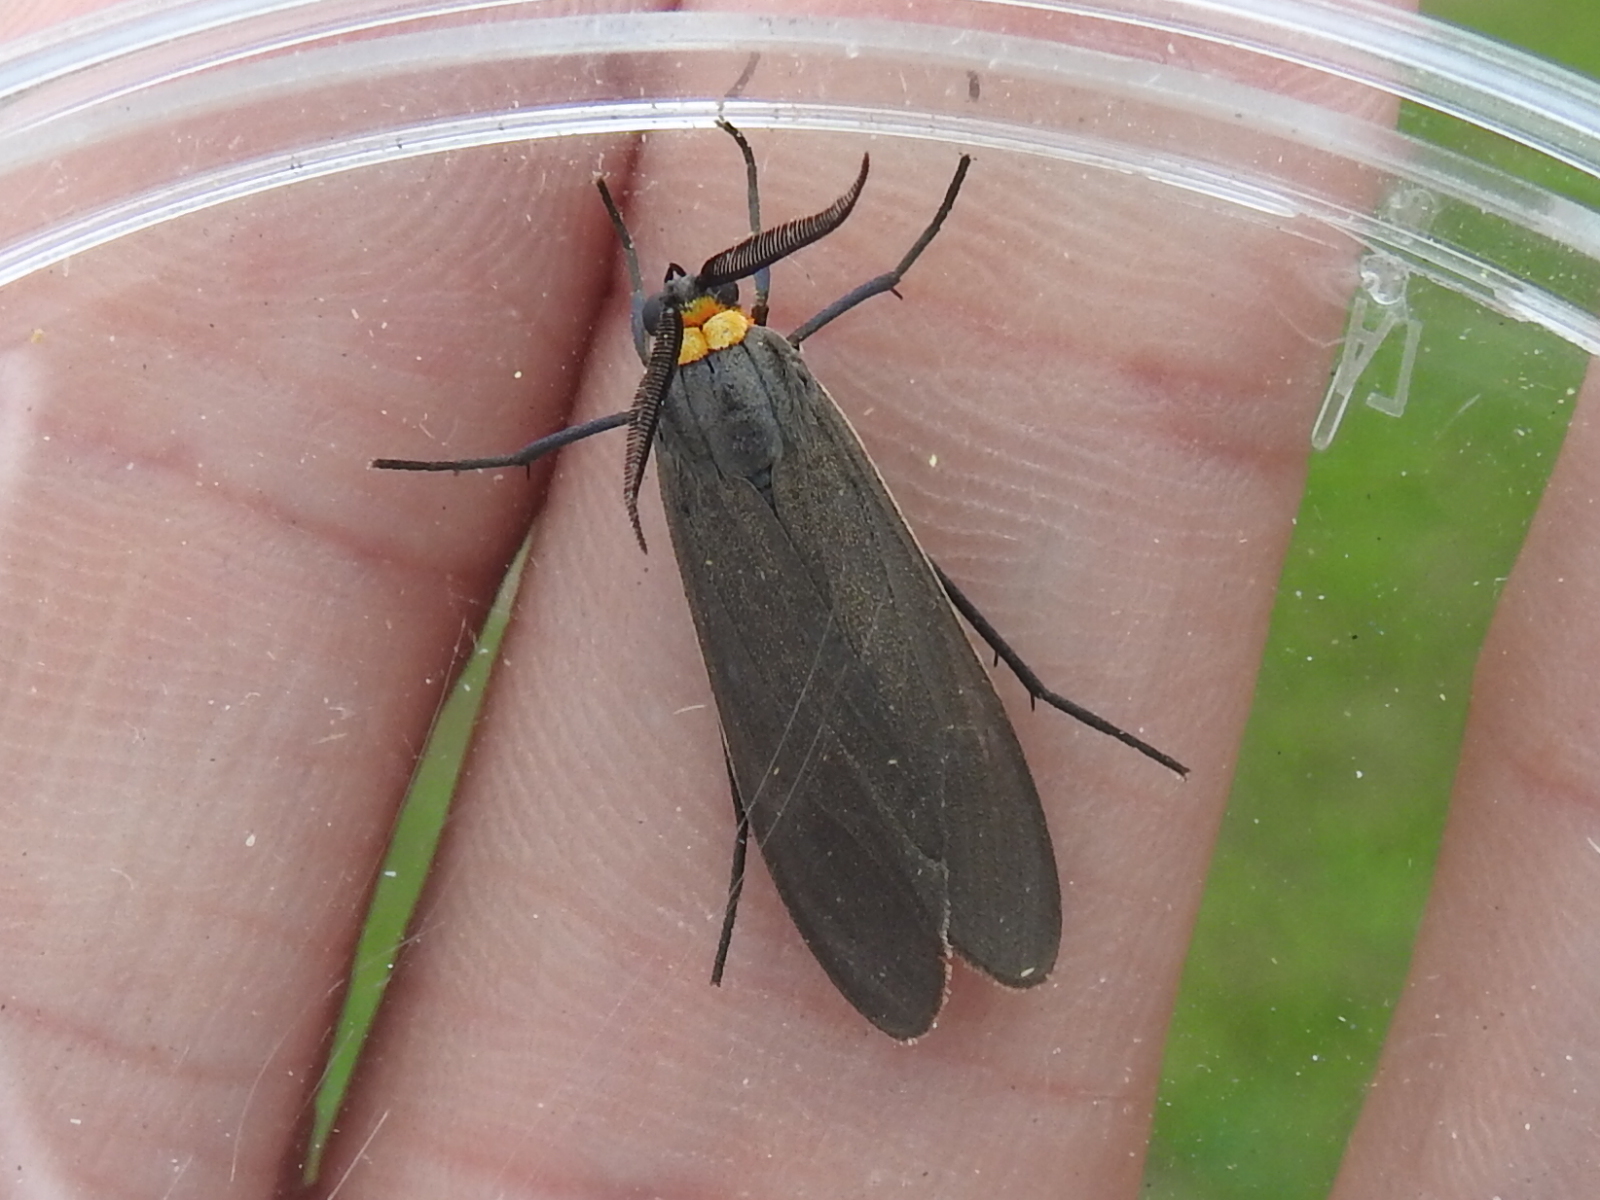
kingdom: Animalia
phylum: Arthropoda
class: Insecta
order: Lepidoptera
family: Erebidae
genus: Cisseps
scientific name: Cisseps fulvicollis
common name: Yellow-collared scape moth
